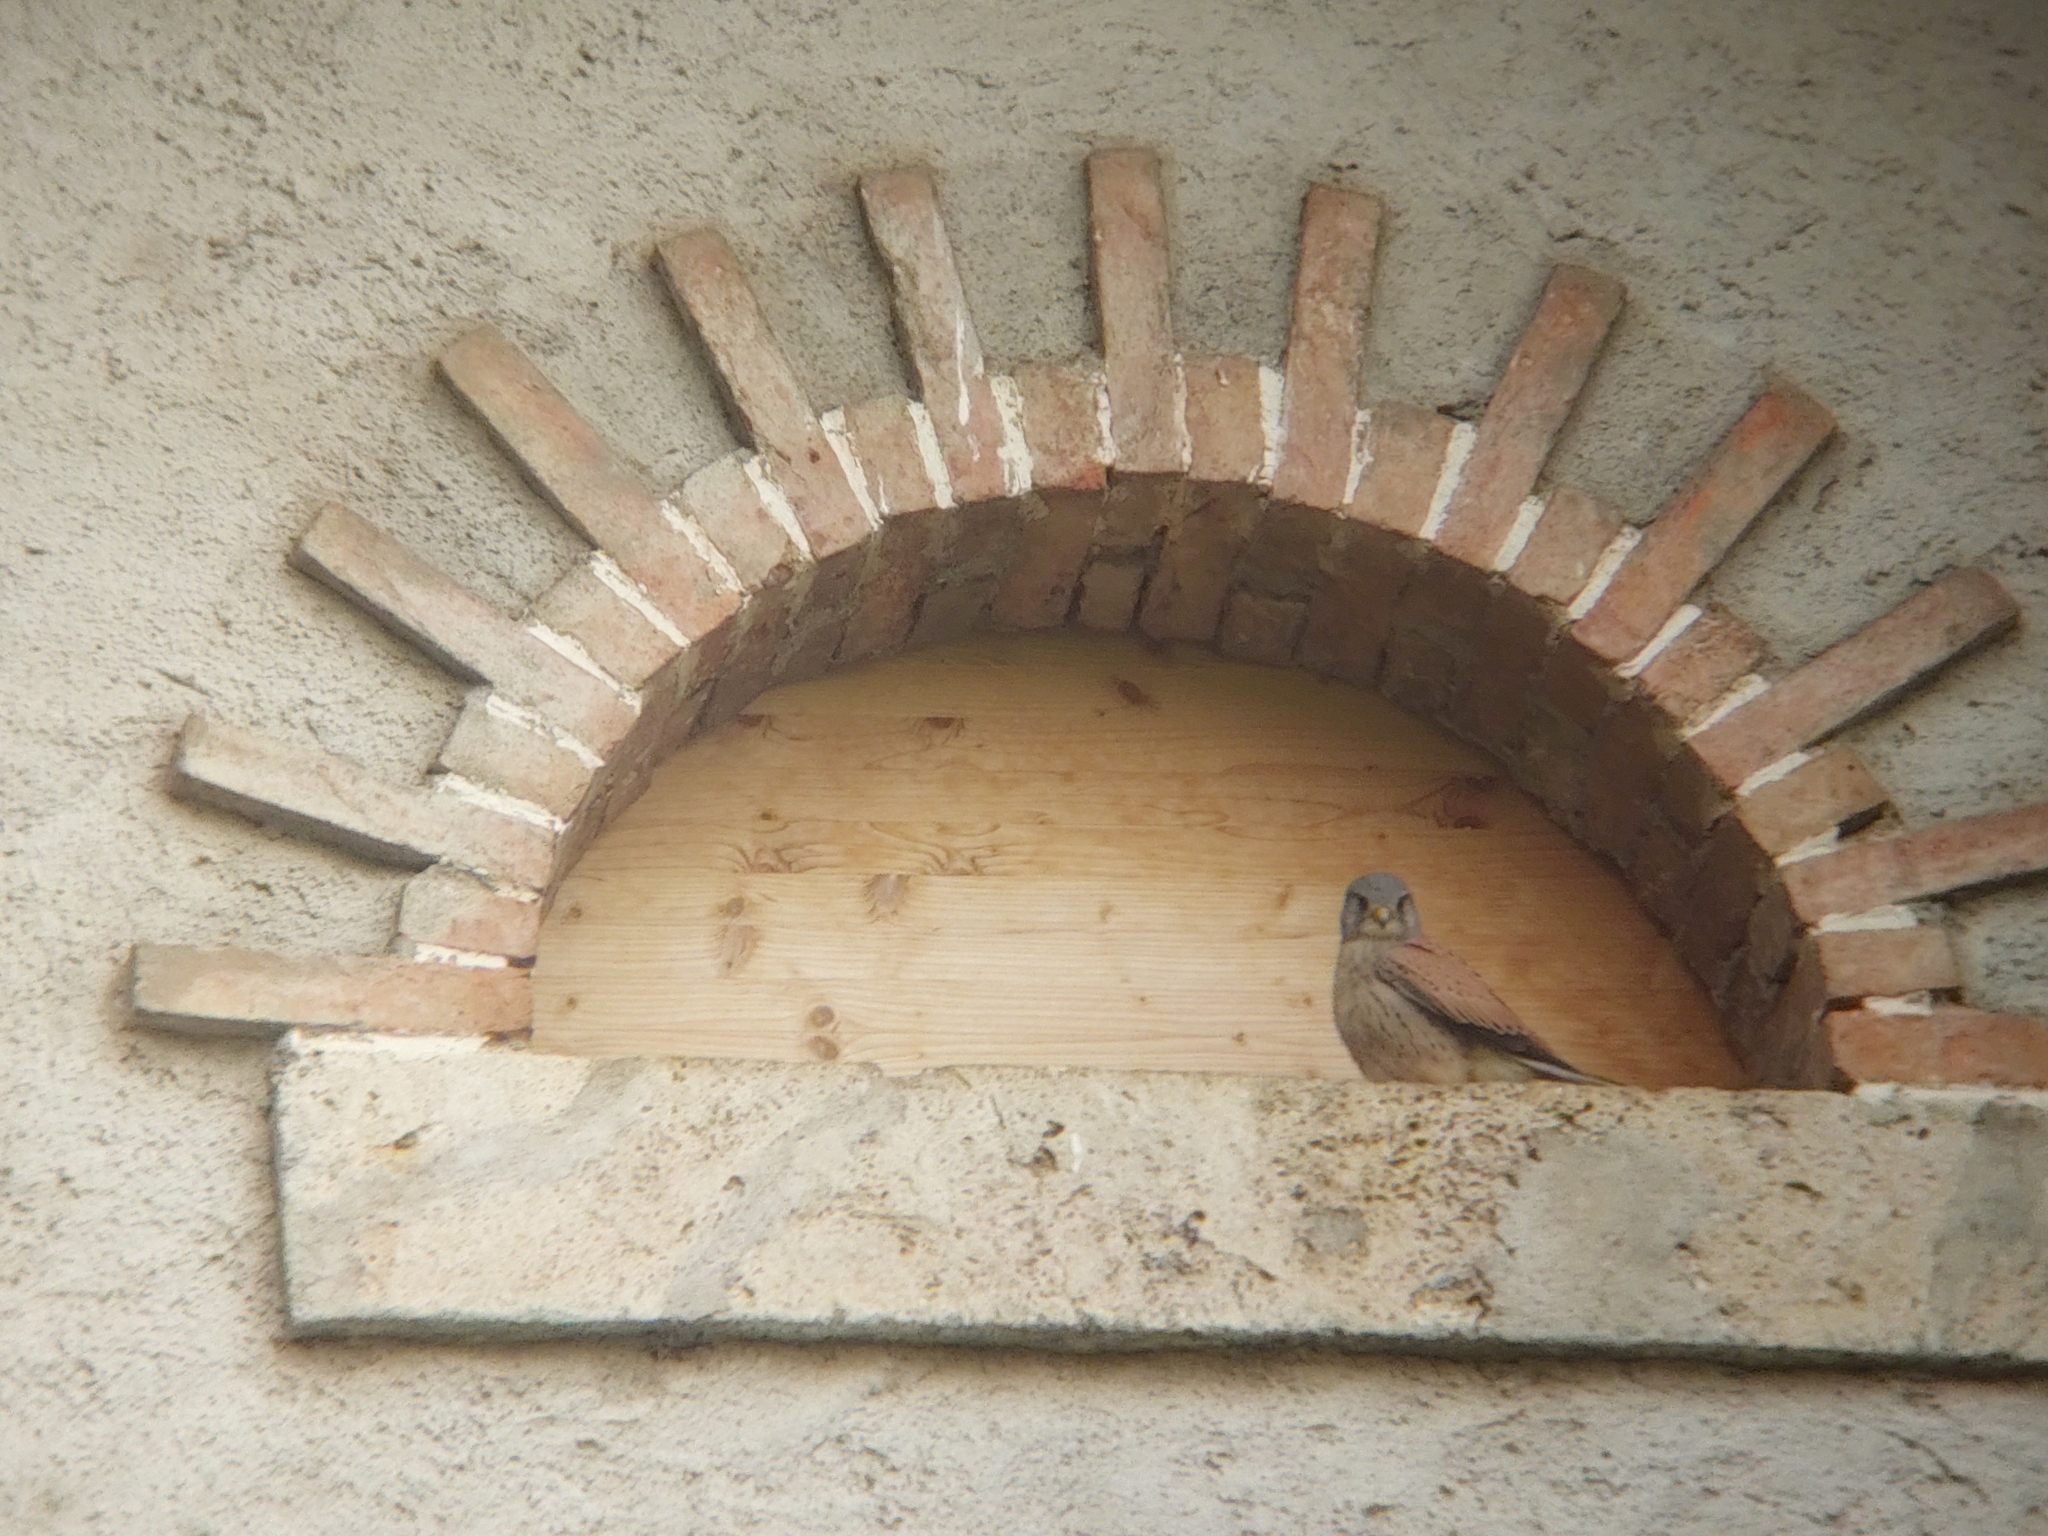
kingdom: Animalia
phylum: Chordata
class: Aves
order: Falconiformes
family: Falconidae
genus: Falco
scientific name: Falco tinnunculus
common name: Common kestrel
